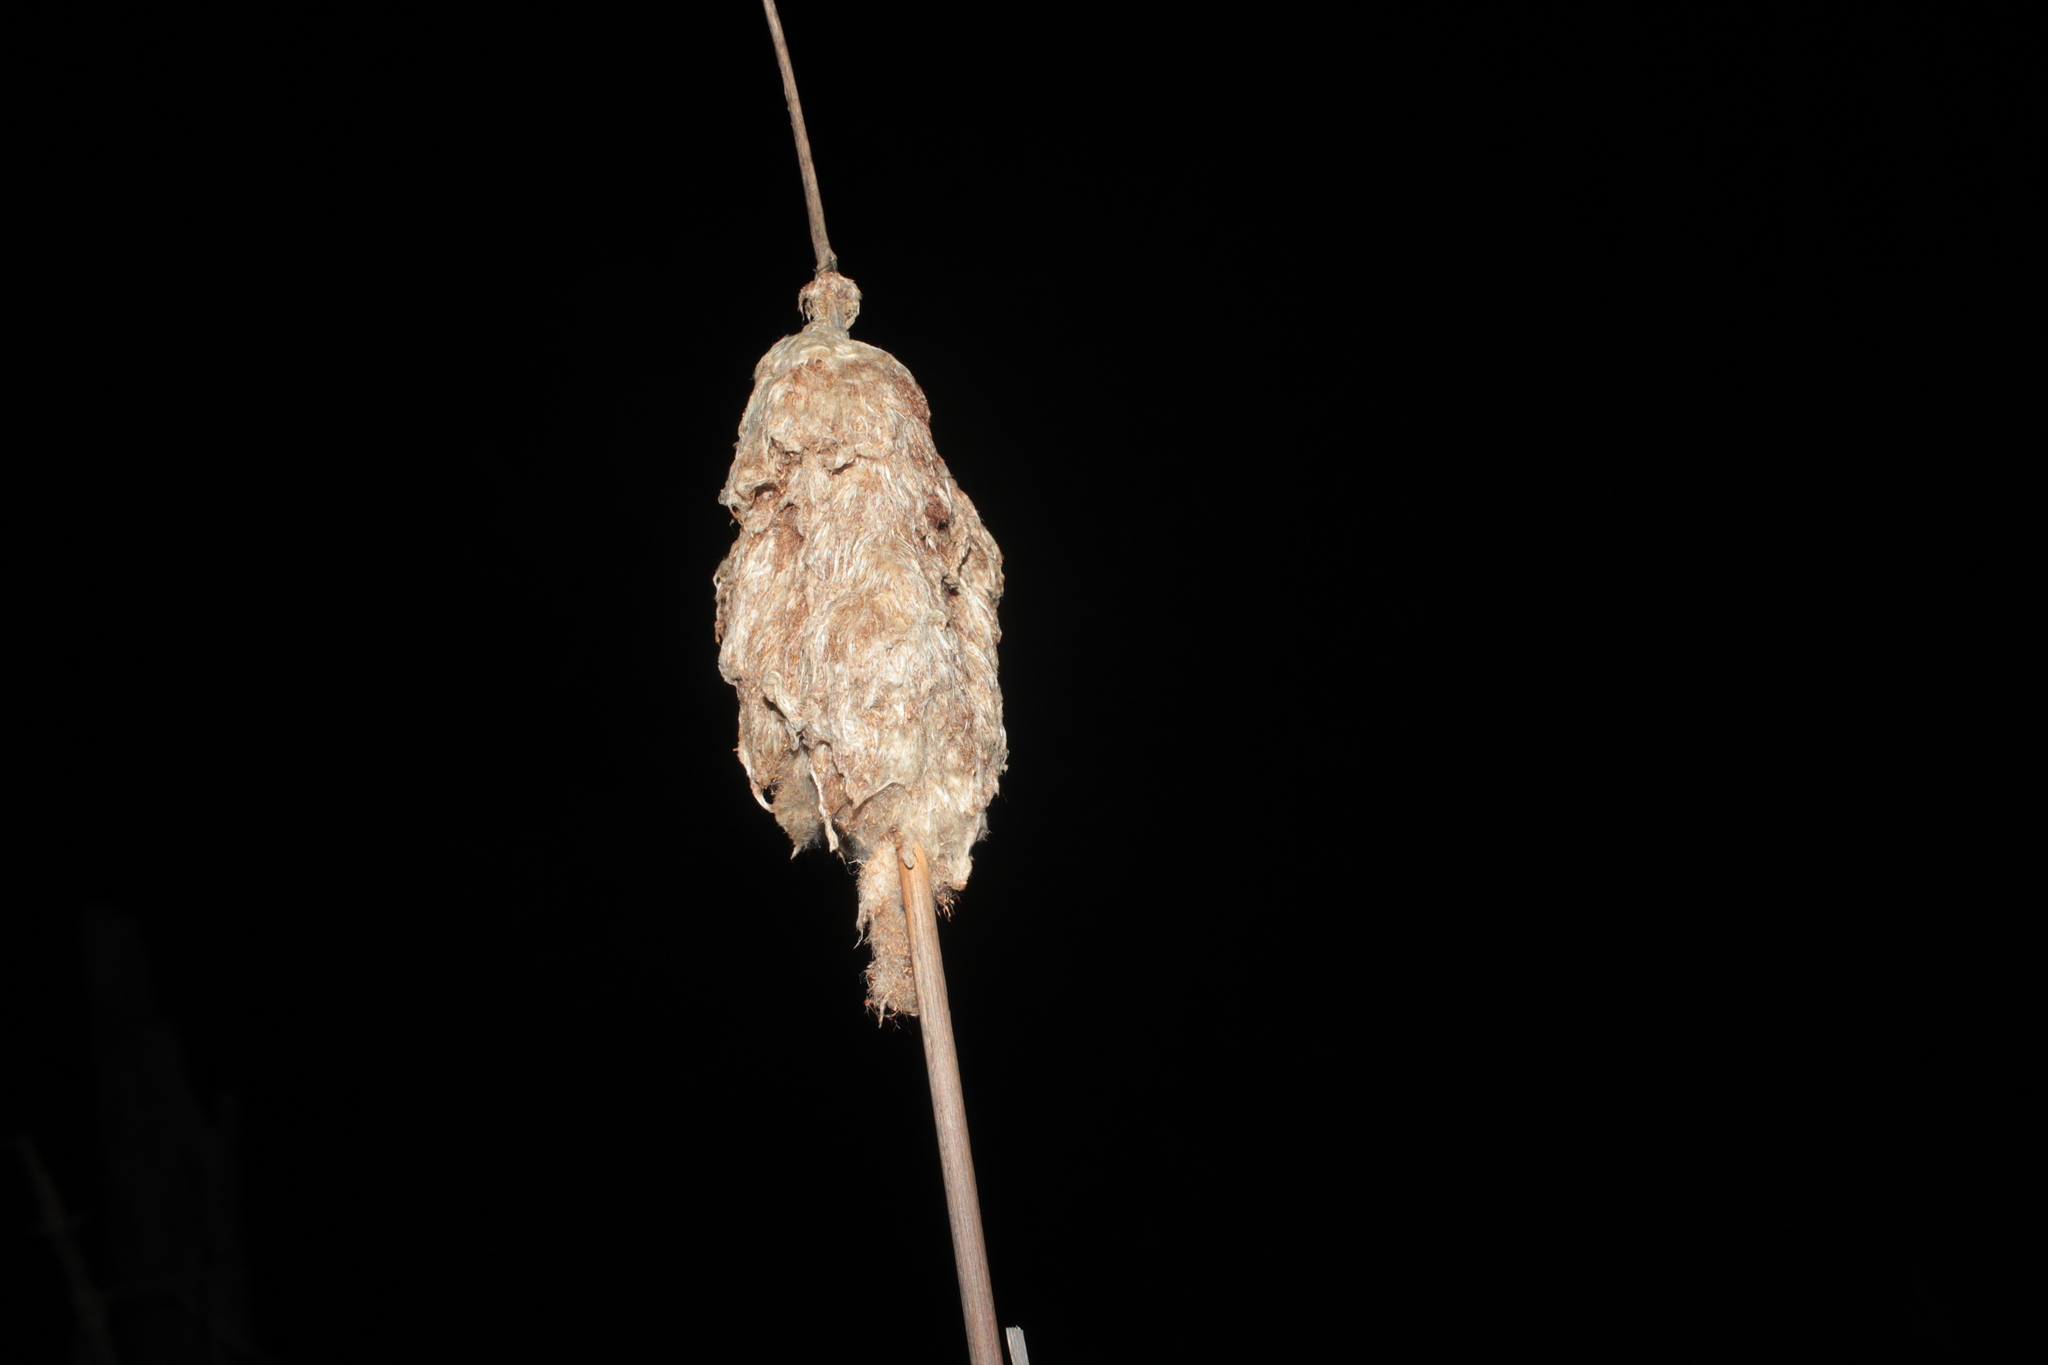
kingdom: Plantae
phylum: Tracheophyta
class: Liliopsida
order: Poales
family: Typhaceae
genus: Typha
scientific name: Typha
